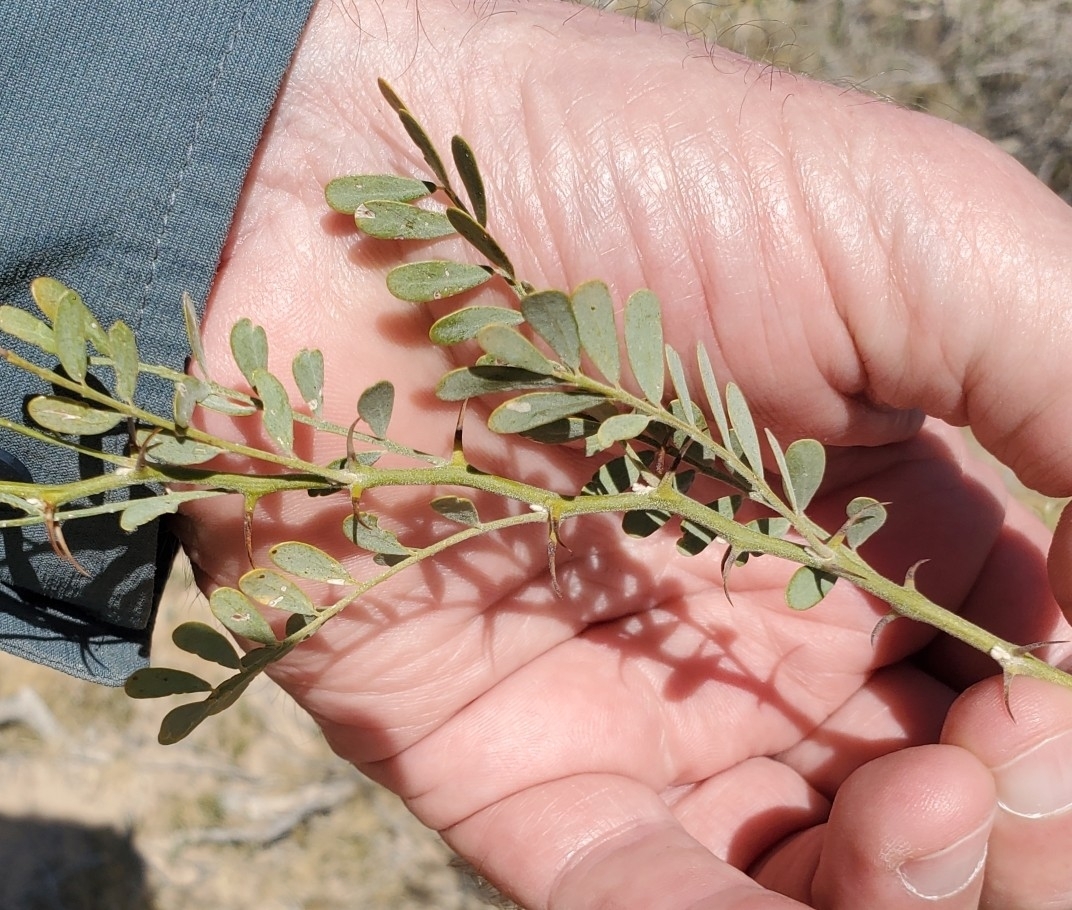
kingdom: Plantae
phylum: Tracheophyta
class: Magnoliopsida
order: Fabales
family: Fabaceae
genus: Olneya
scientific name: Olneya tesota
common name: Desert ironwood
